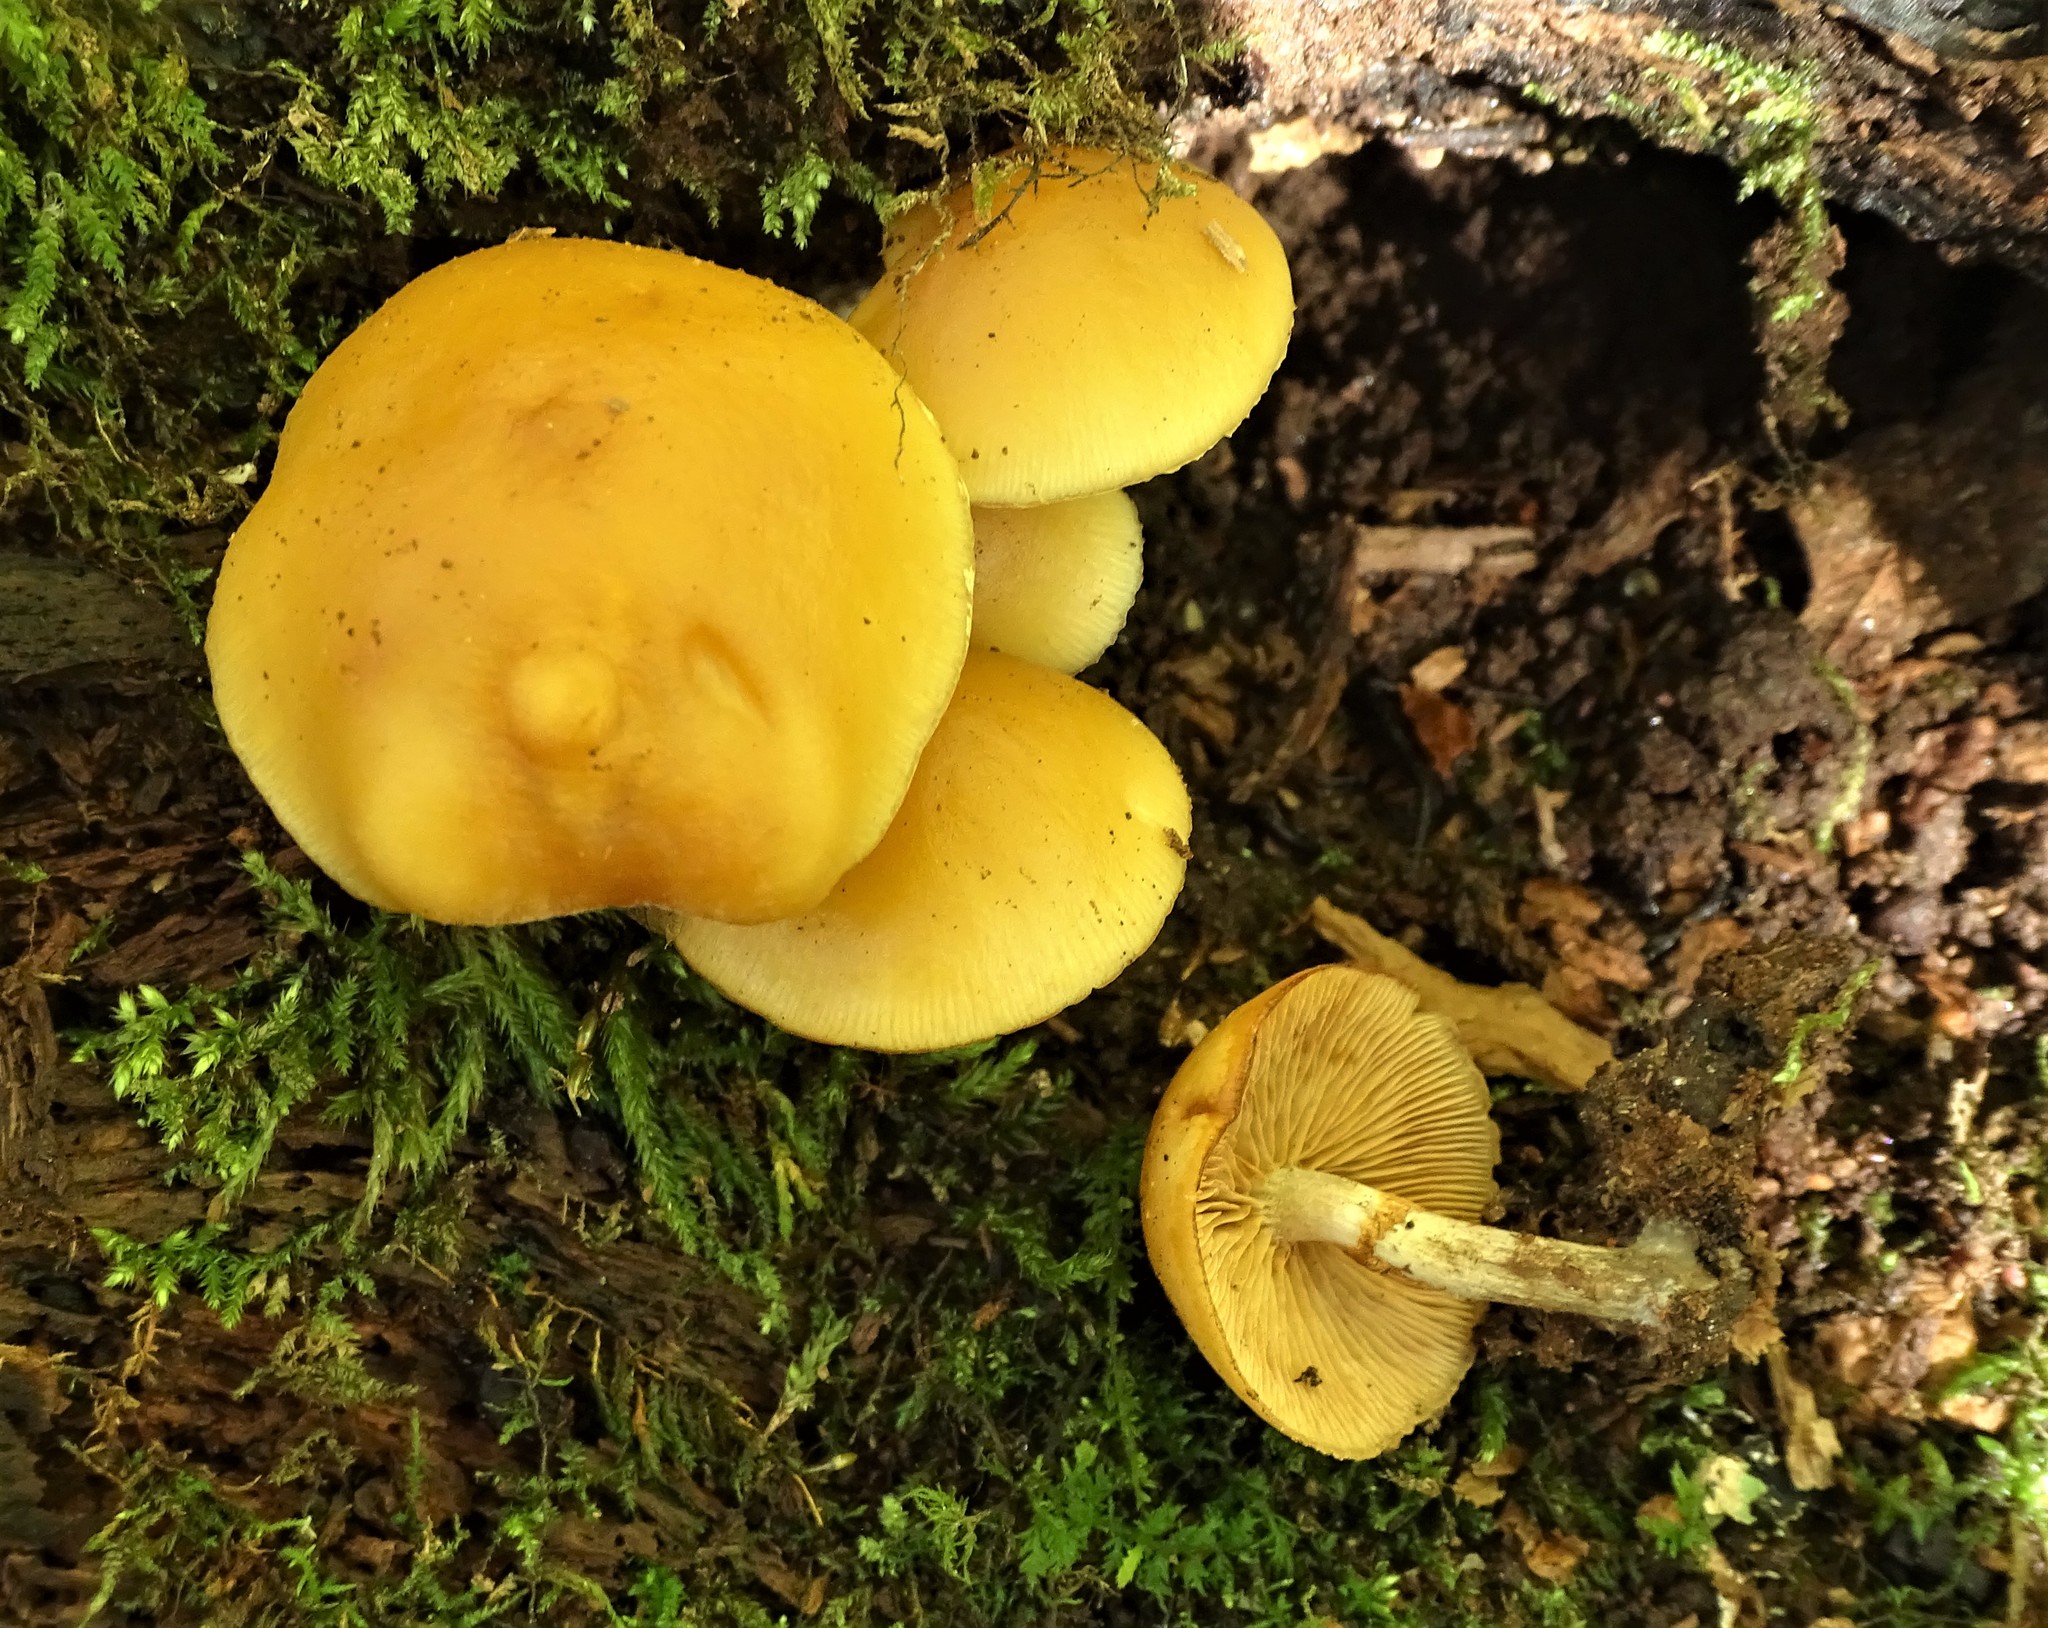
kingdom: Fungi
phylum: Basidiomycota
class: Agaricomycetes
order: Agaricales
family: Hymenogastraceae
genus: Galerina
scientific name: Galerina marginata
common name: Funeral bell
